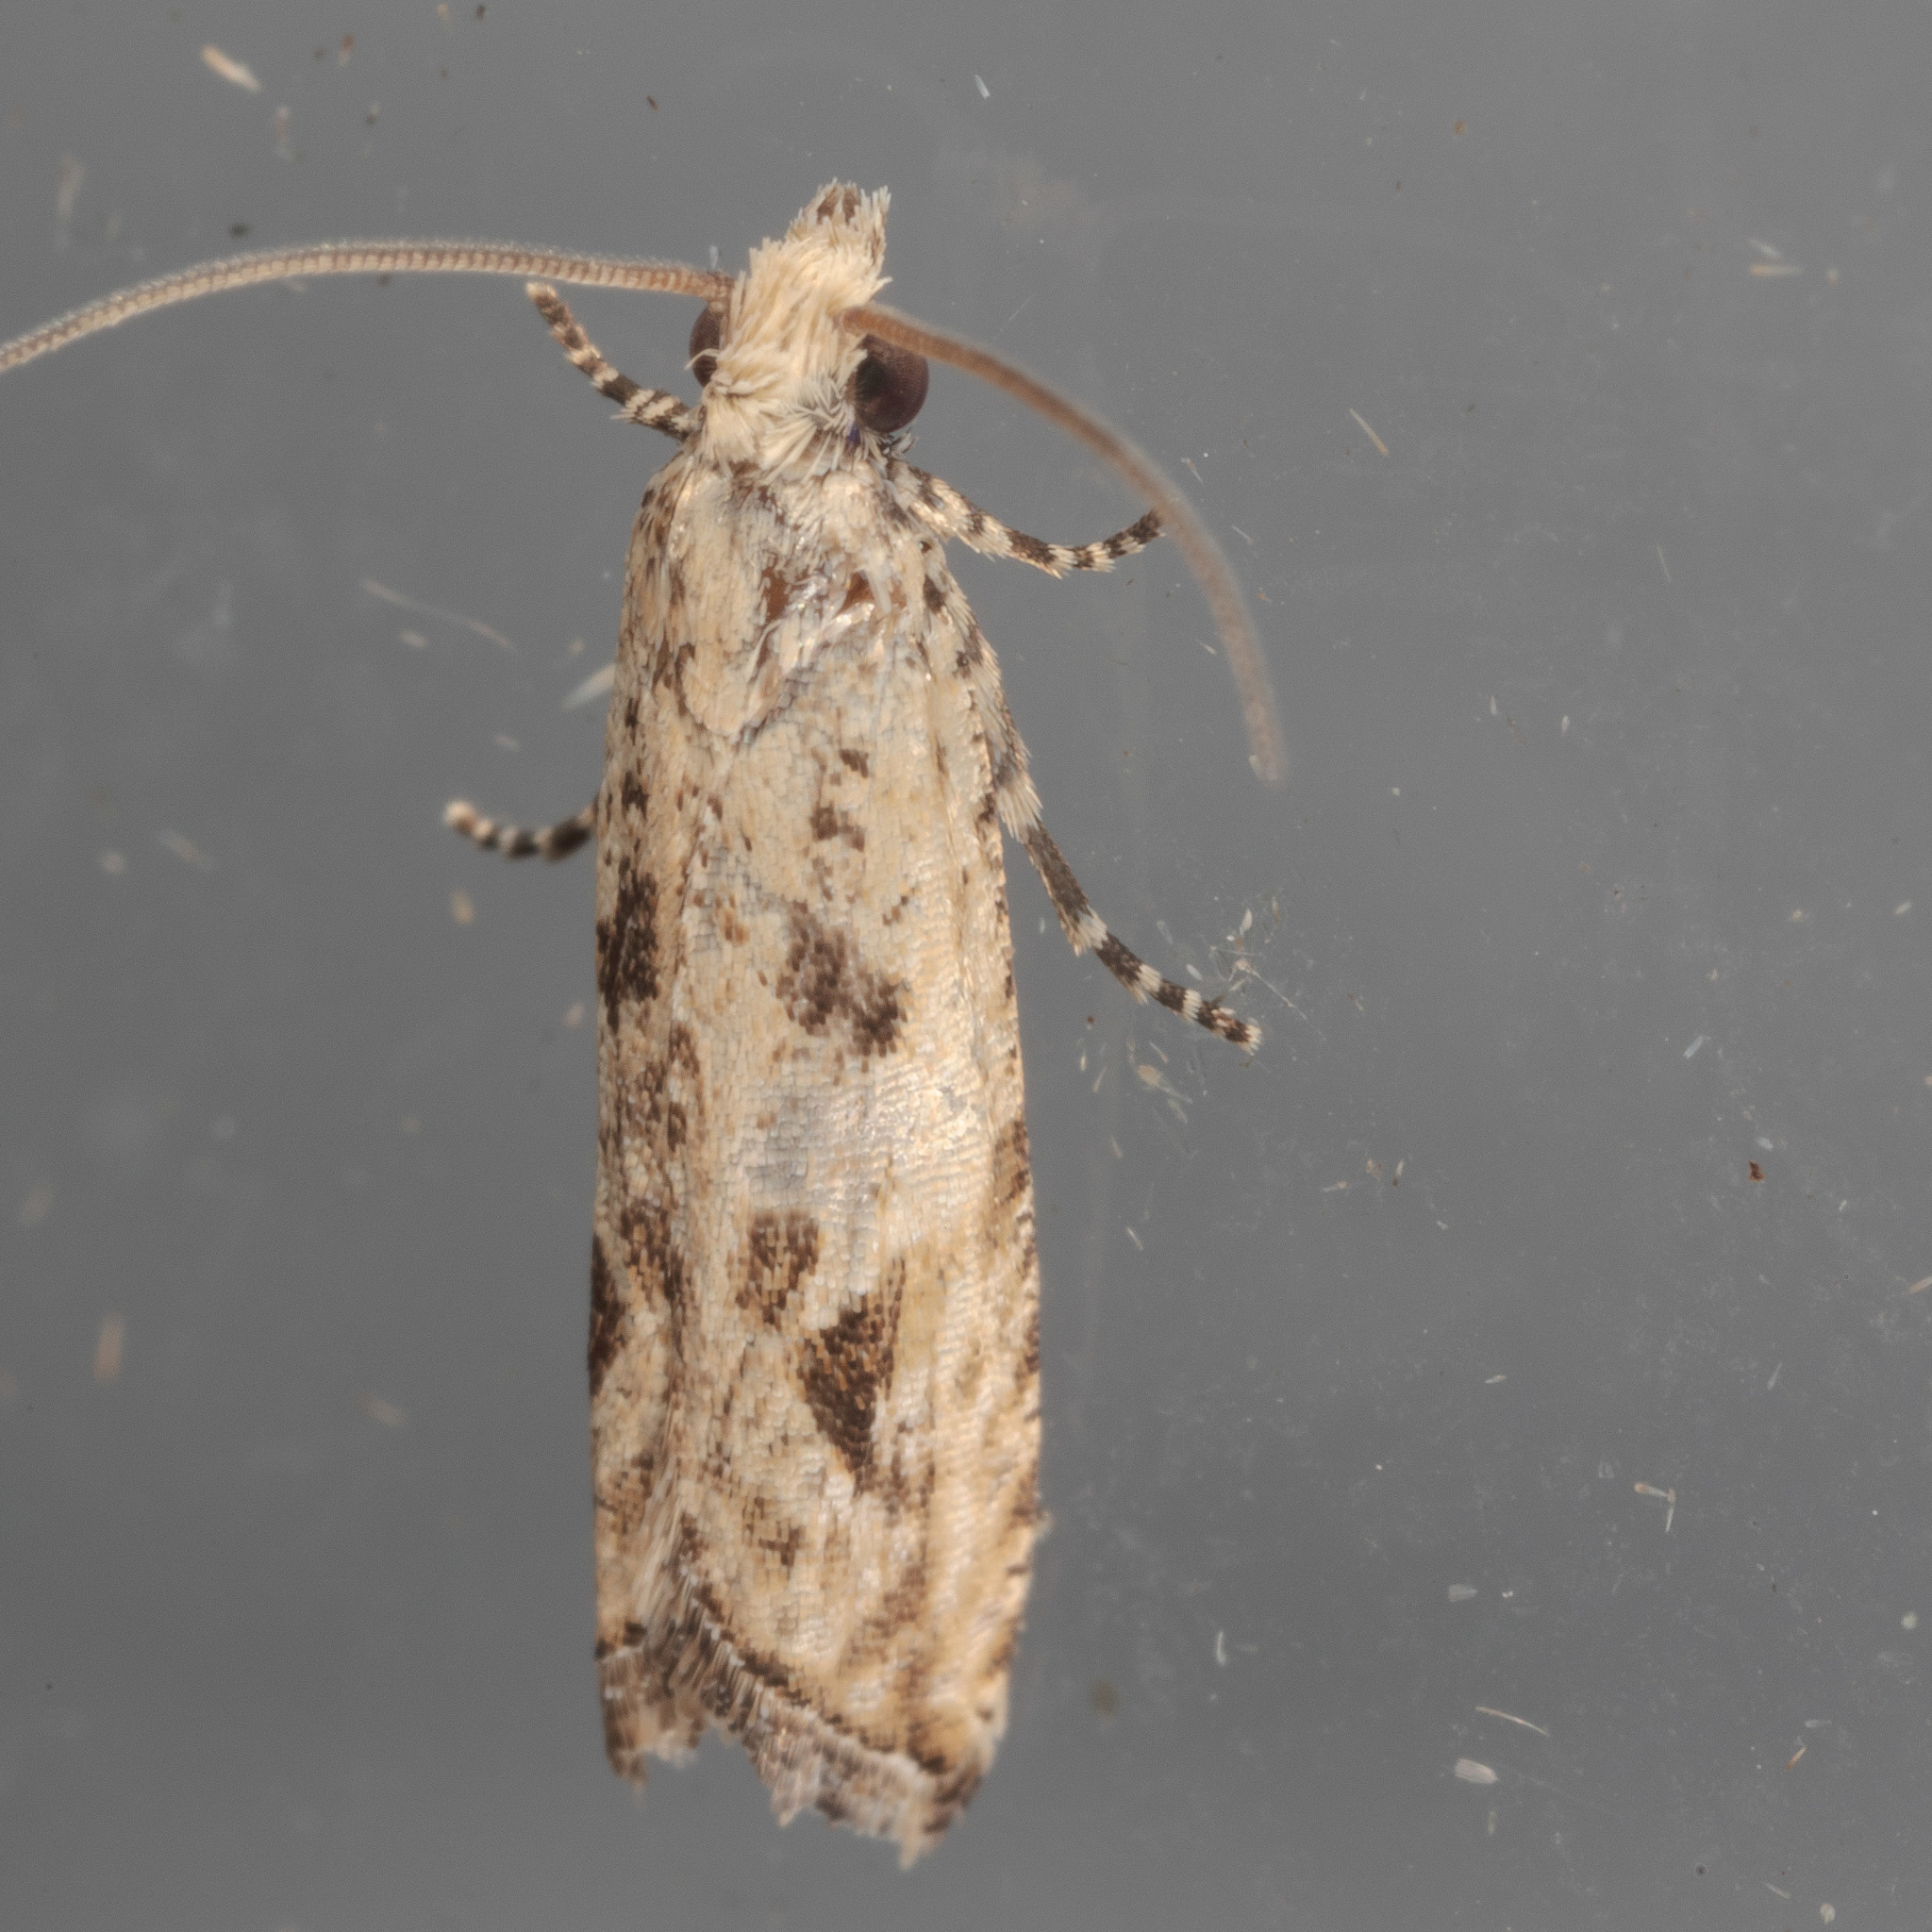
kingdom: Animalia
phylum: Arthropoda
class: Insecta
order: Lepidoptera
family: Tortricidae
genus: Bactra
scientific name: Bactra verutana
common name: Javelin moth
